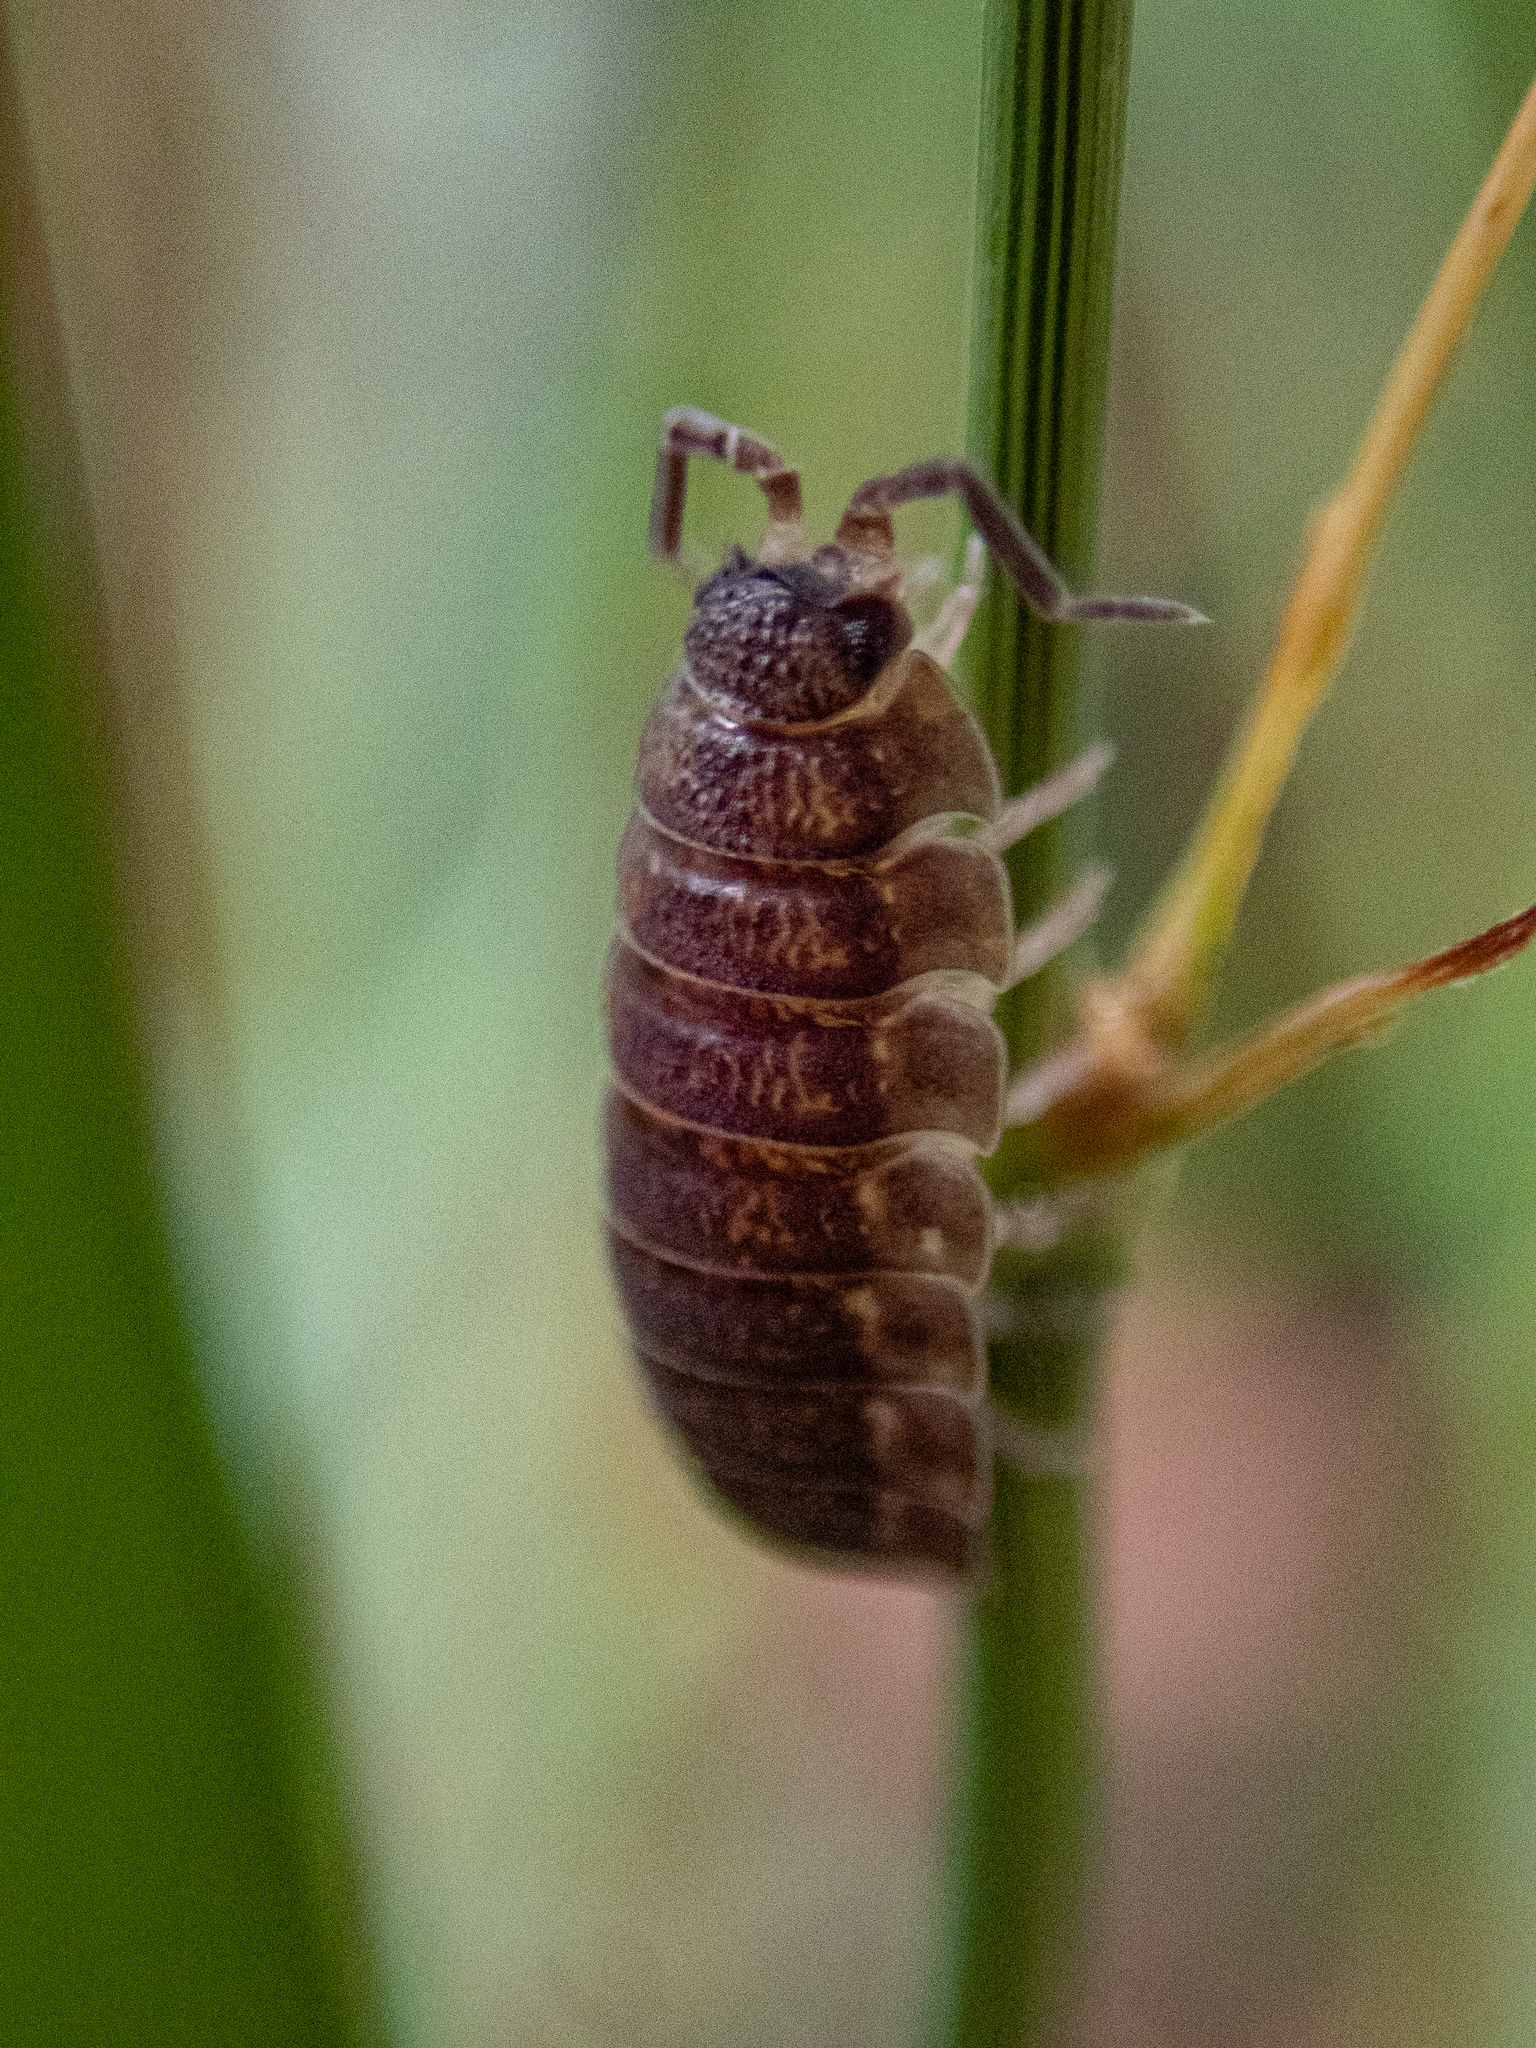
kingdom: Animalia
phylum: Arthropoda
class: Malacostraca
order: Isopoda
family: Porcellionidae
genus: Porcellio
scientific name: Porcellio scaber
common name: Common rough woodlouse
